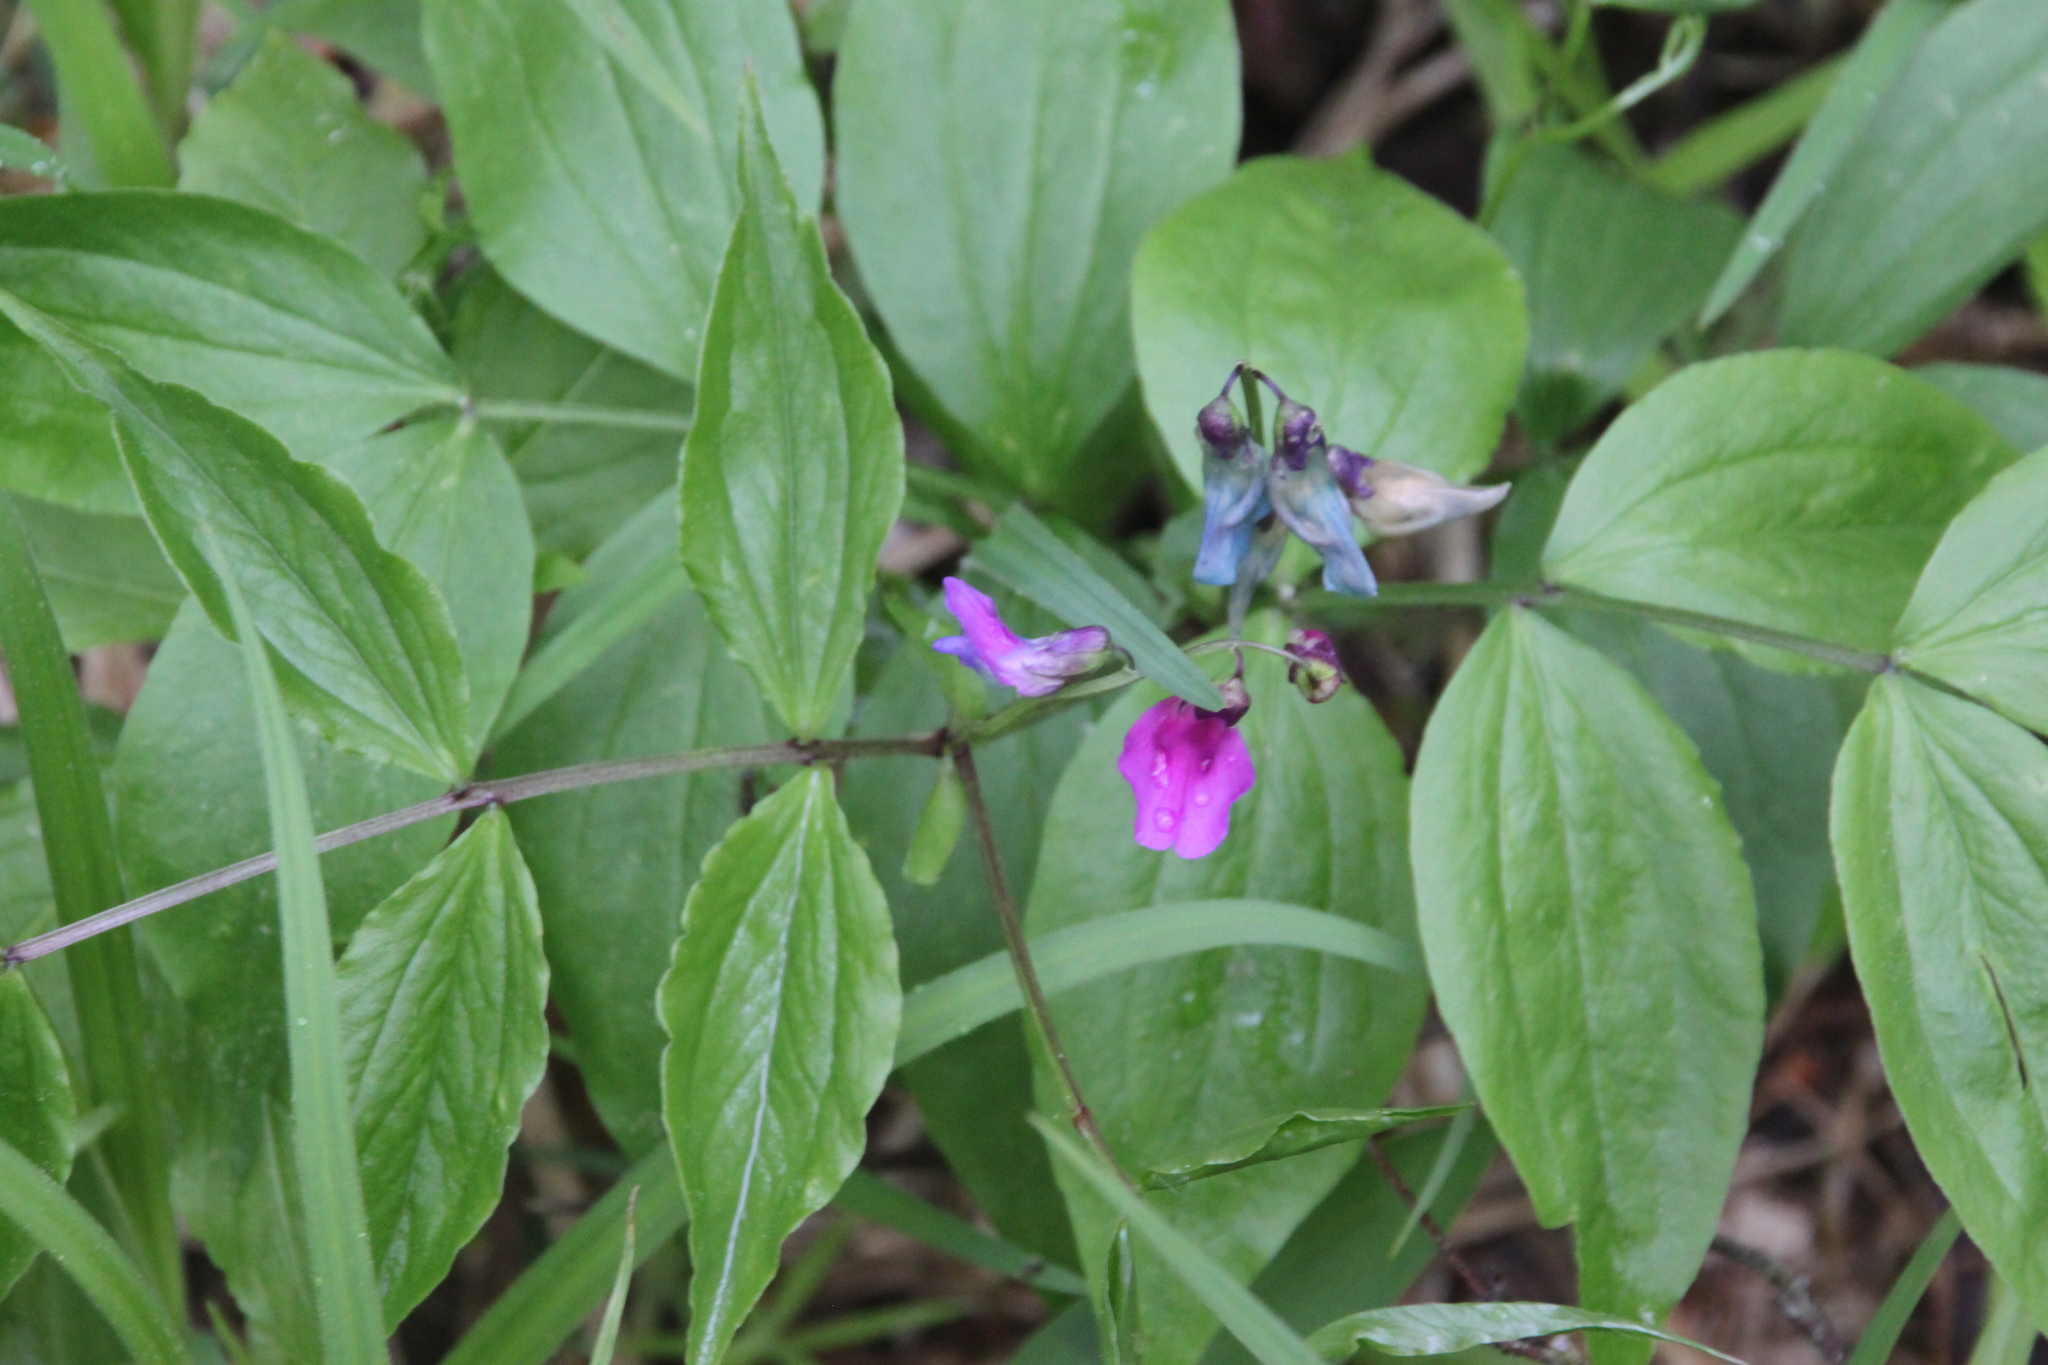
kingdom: Plantae
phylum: Tracheophyta
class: Magnoliopsida
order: Fabales
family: Fabaceae
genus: Lathyrus
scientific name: Lathyrus vernus
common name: Spring pea
